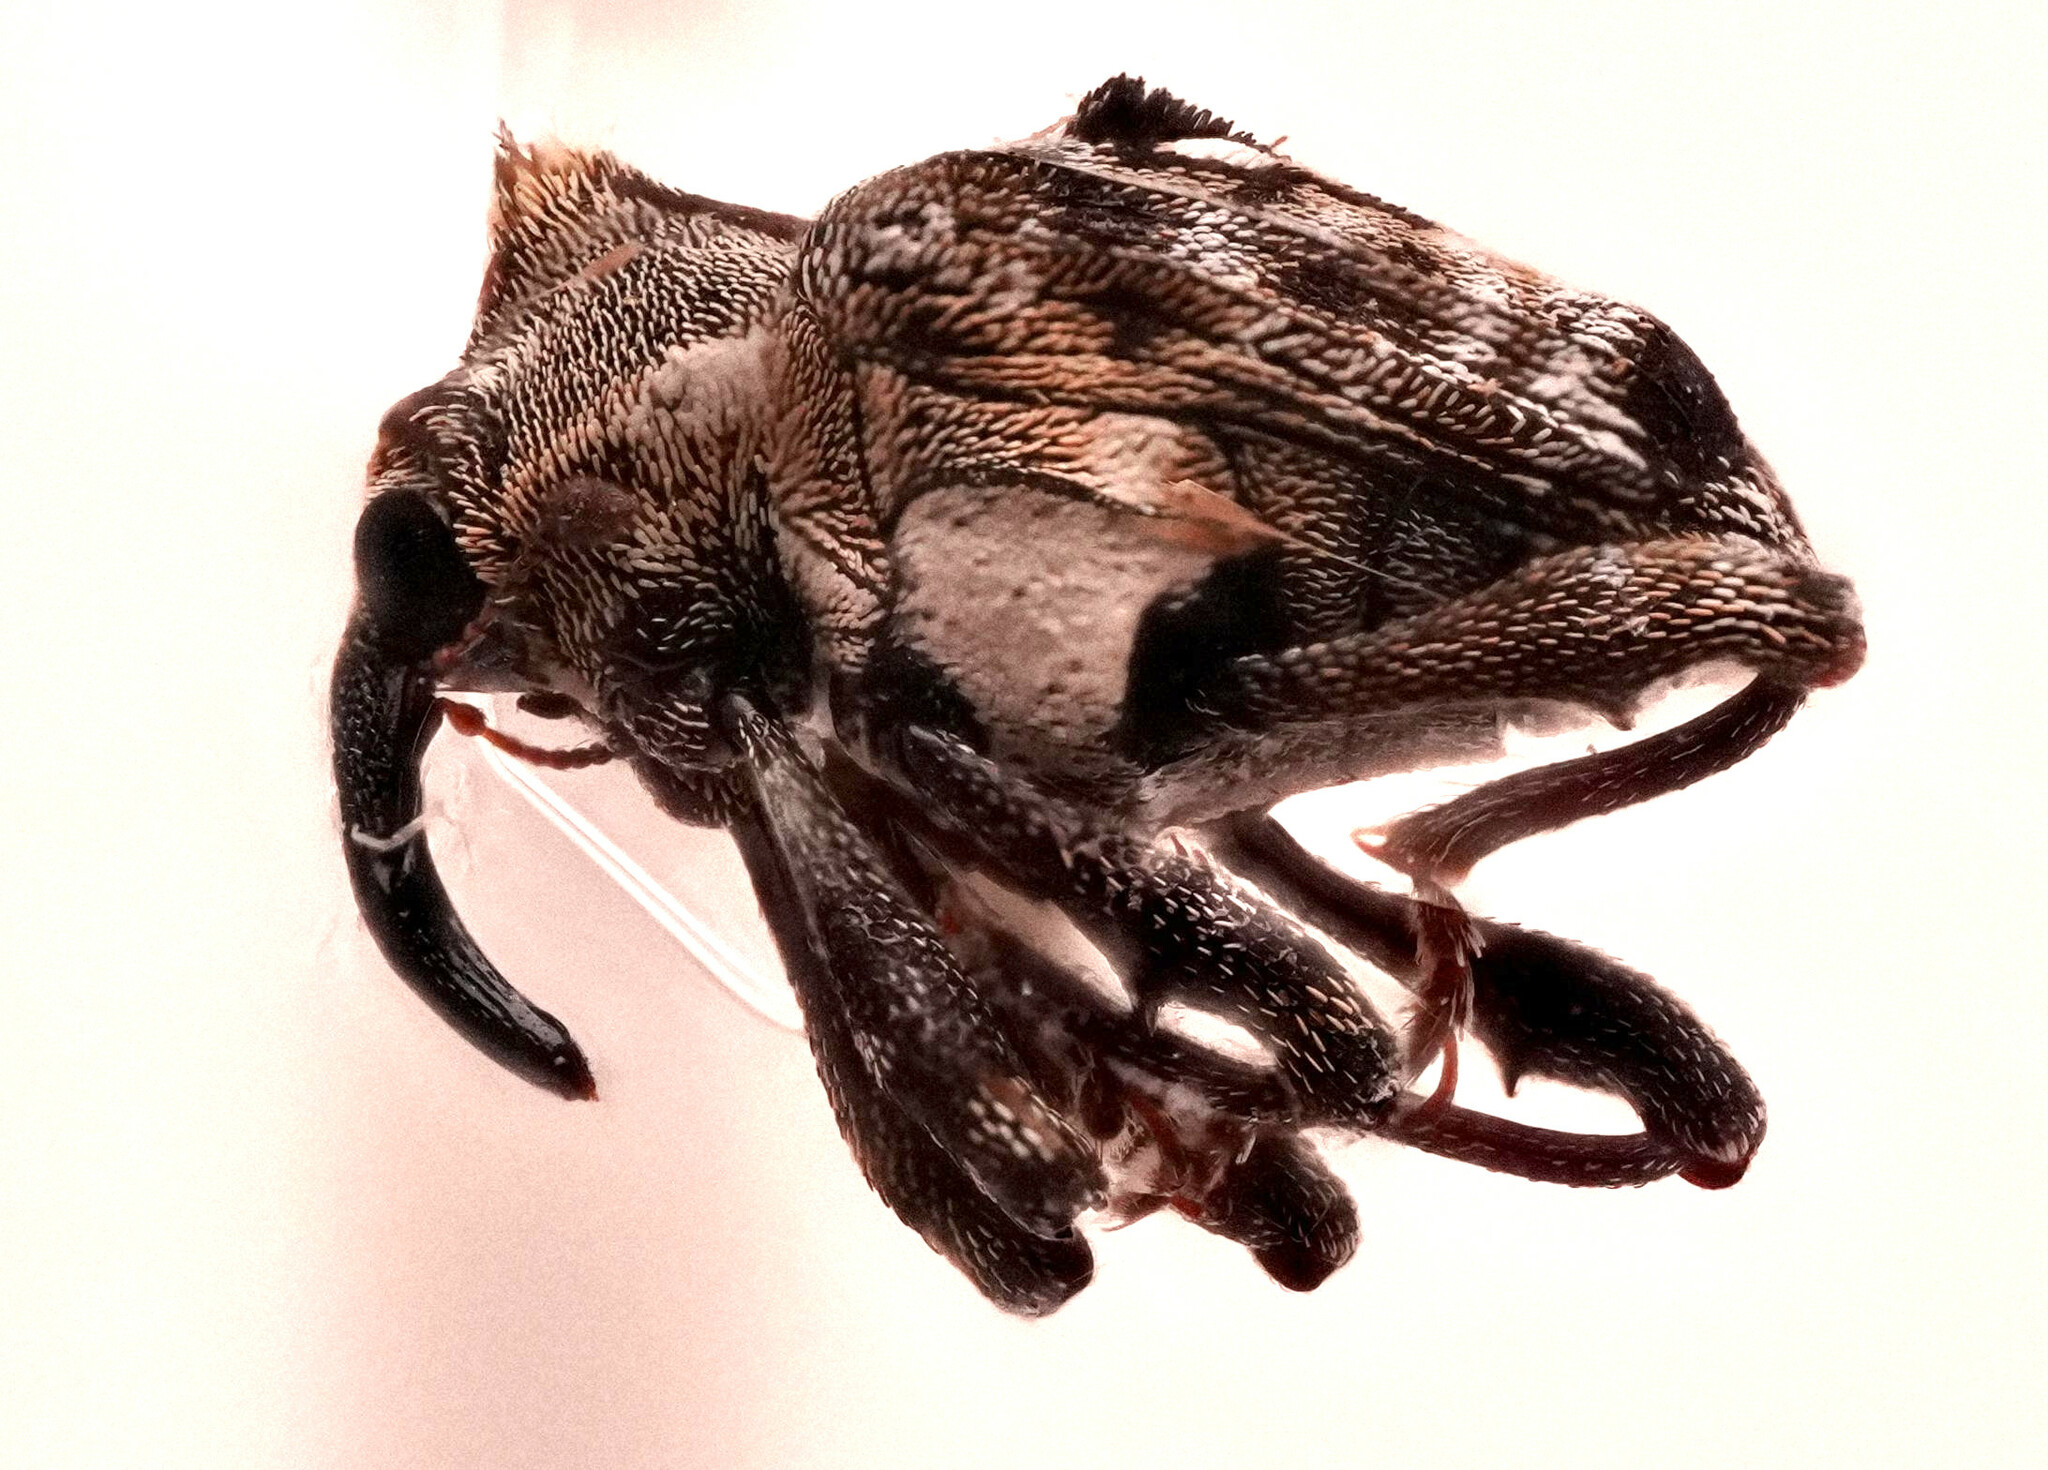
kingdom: Animalia
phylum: Arthropoda
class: Insecta
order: Coleoptera
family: Curculionidae
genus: Cyrionyx
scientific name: Cyrionyx camelus
